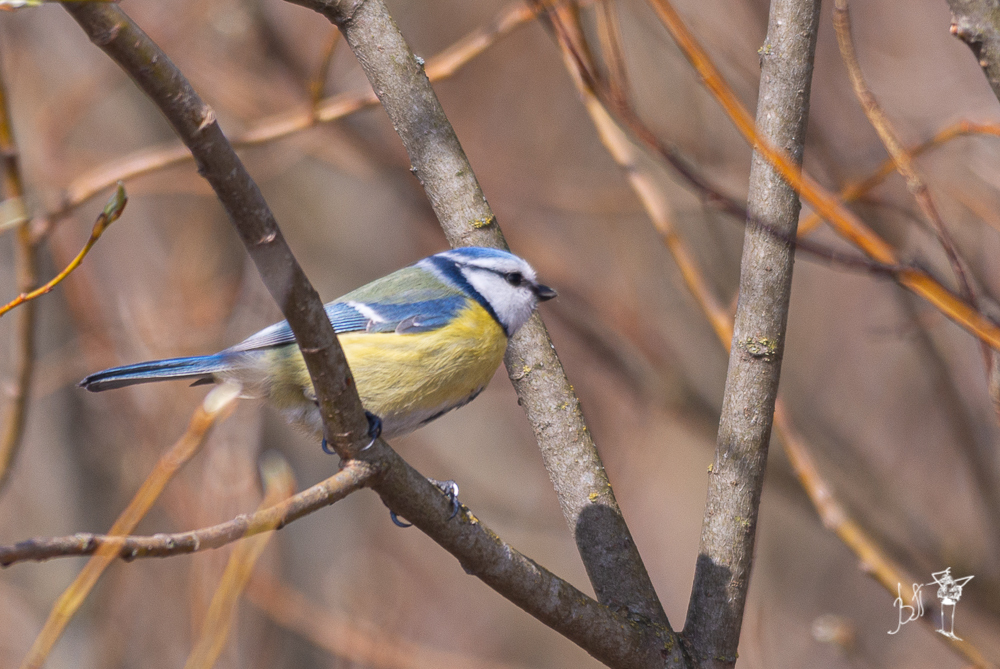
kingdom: Animalia
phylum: Chordata
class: Aves
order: Passeriformes
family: Paridae
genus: Cyanistes
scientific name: Cyanistes caeruleus
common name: Eurasian blue tit
